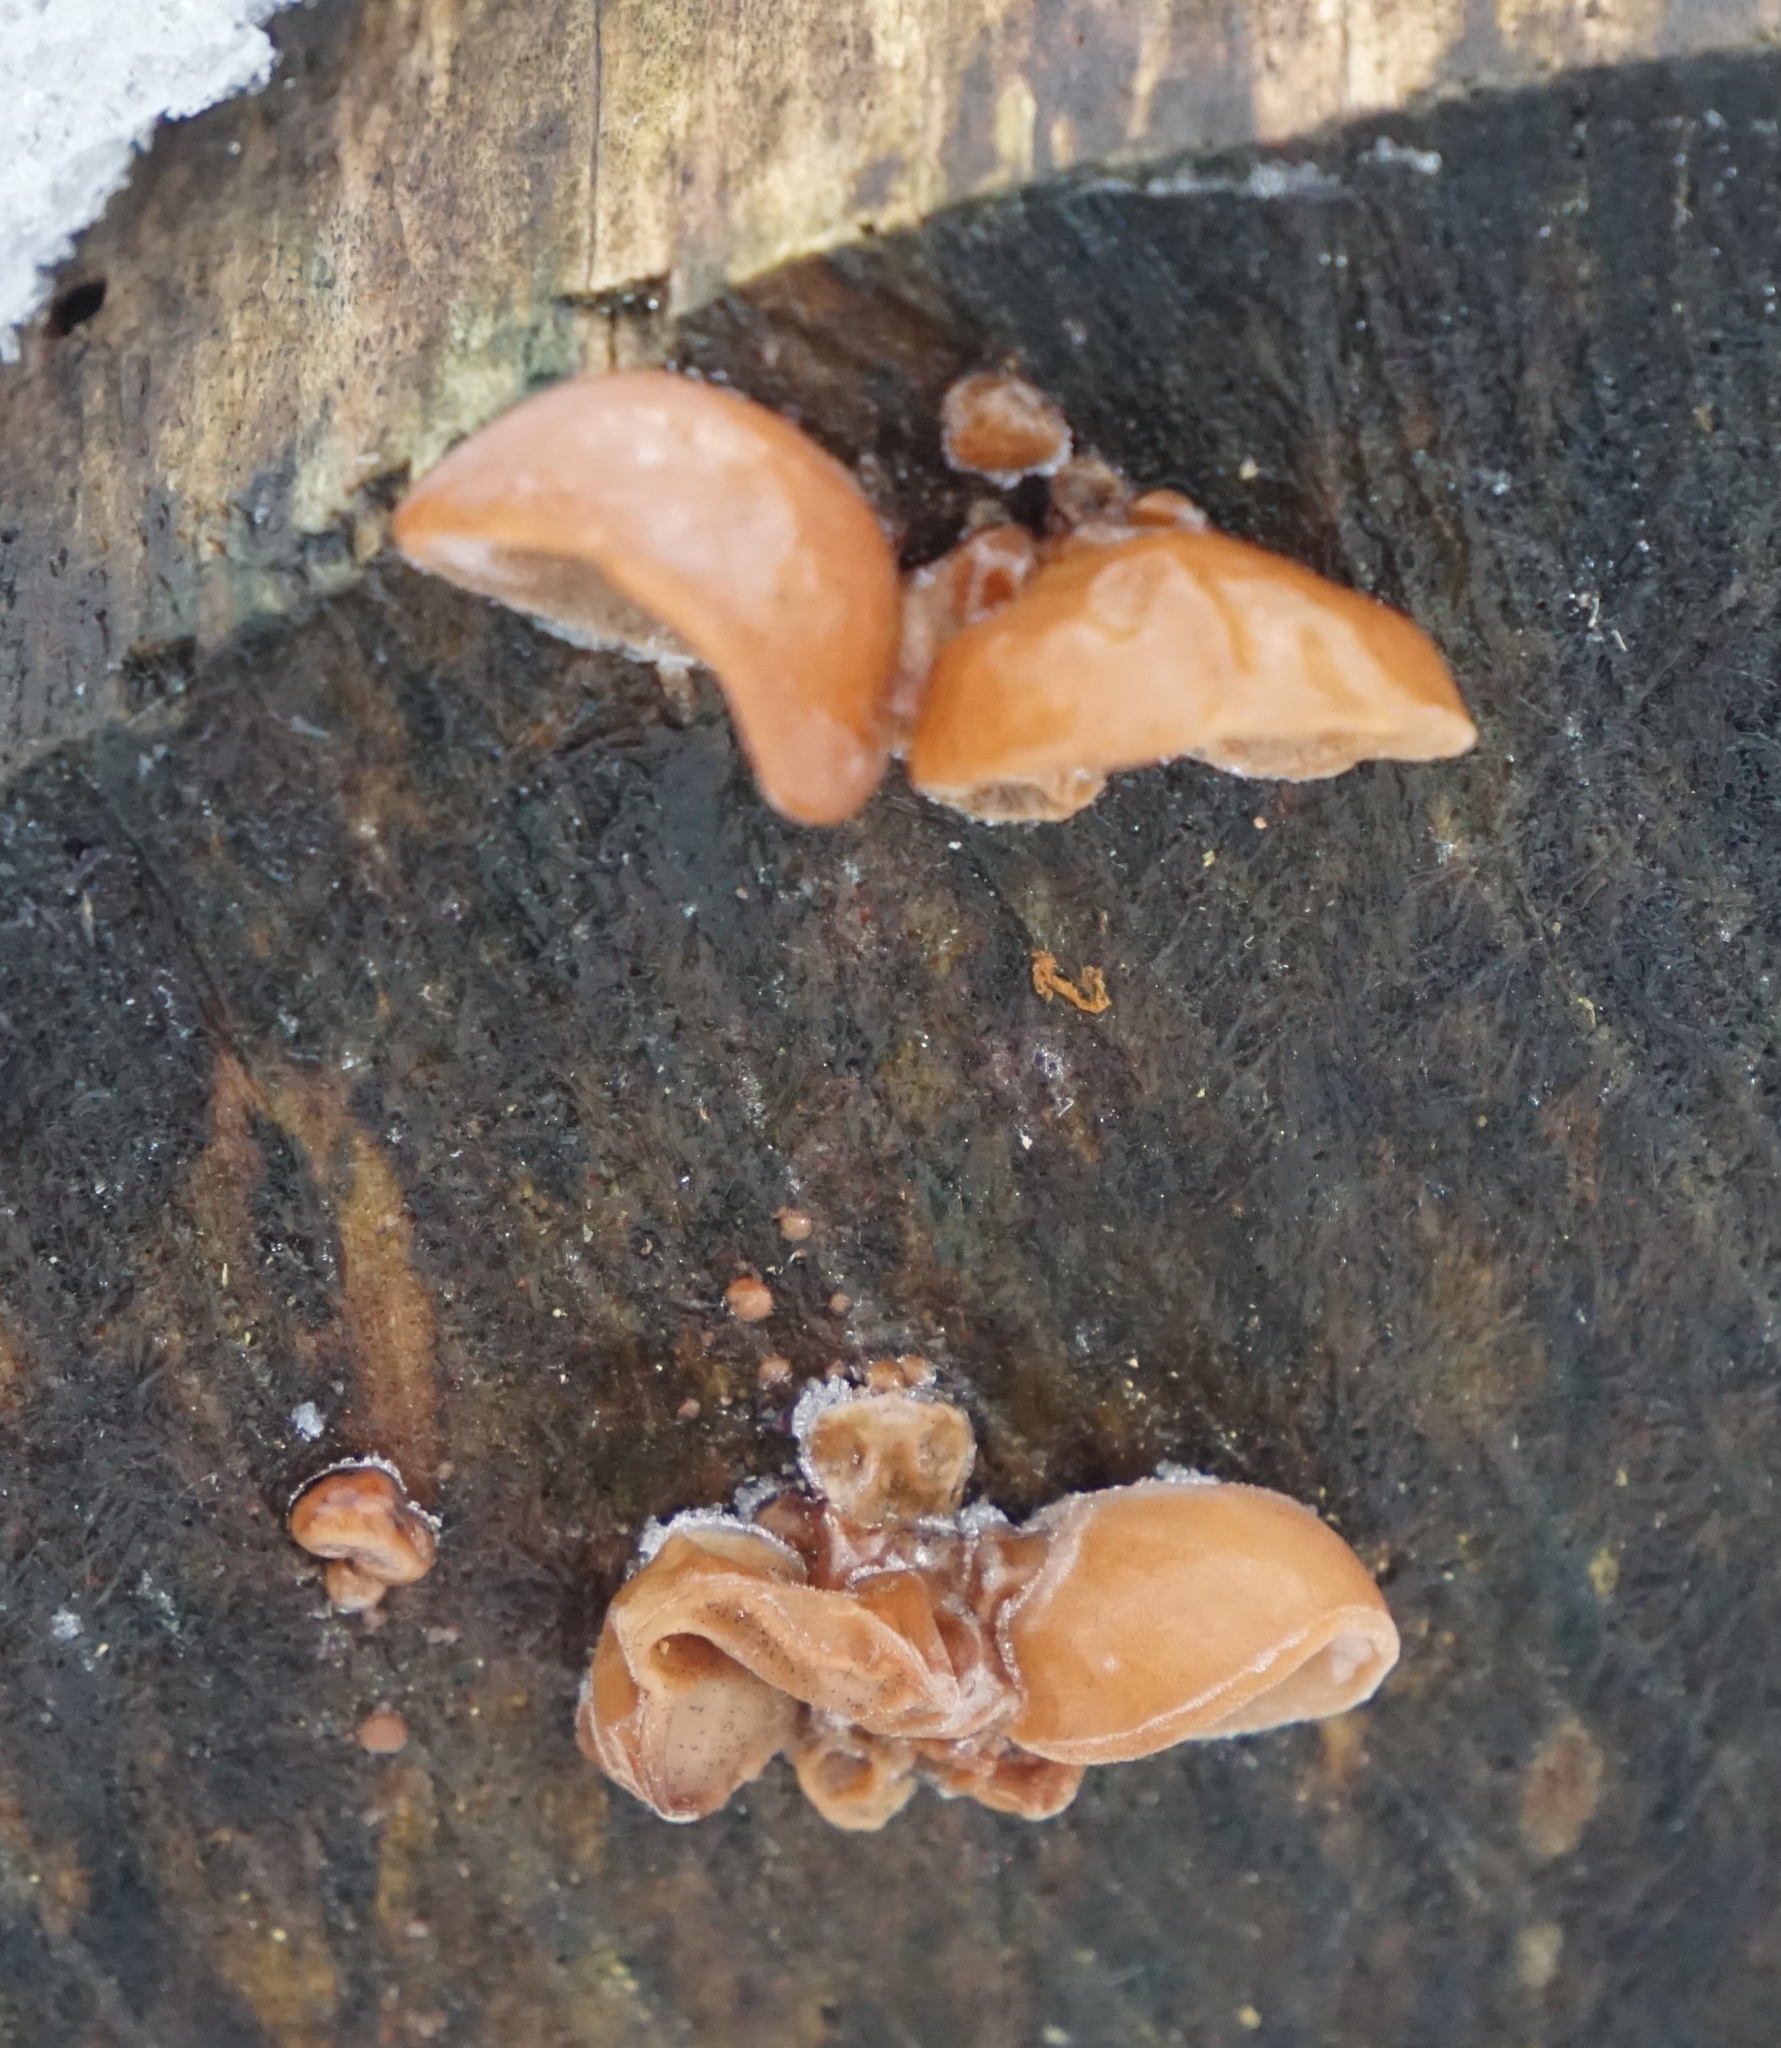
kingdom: Fungi
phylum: Basidiomycota
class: Agaricomycetes
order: Auriculariales
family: Auriculariaceae
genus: Auricularia
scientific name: Auricularia auricula-judae
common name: Jelly ear
